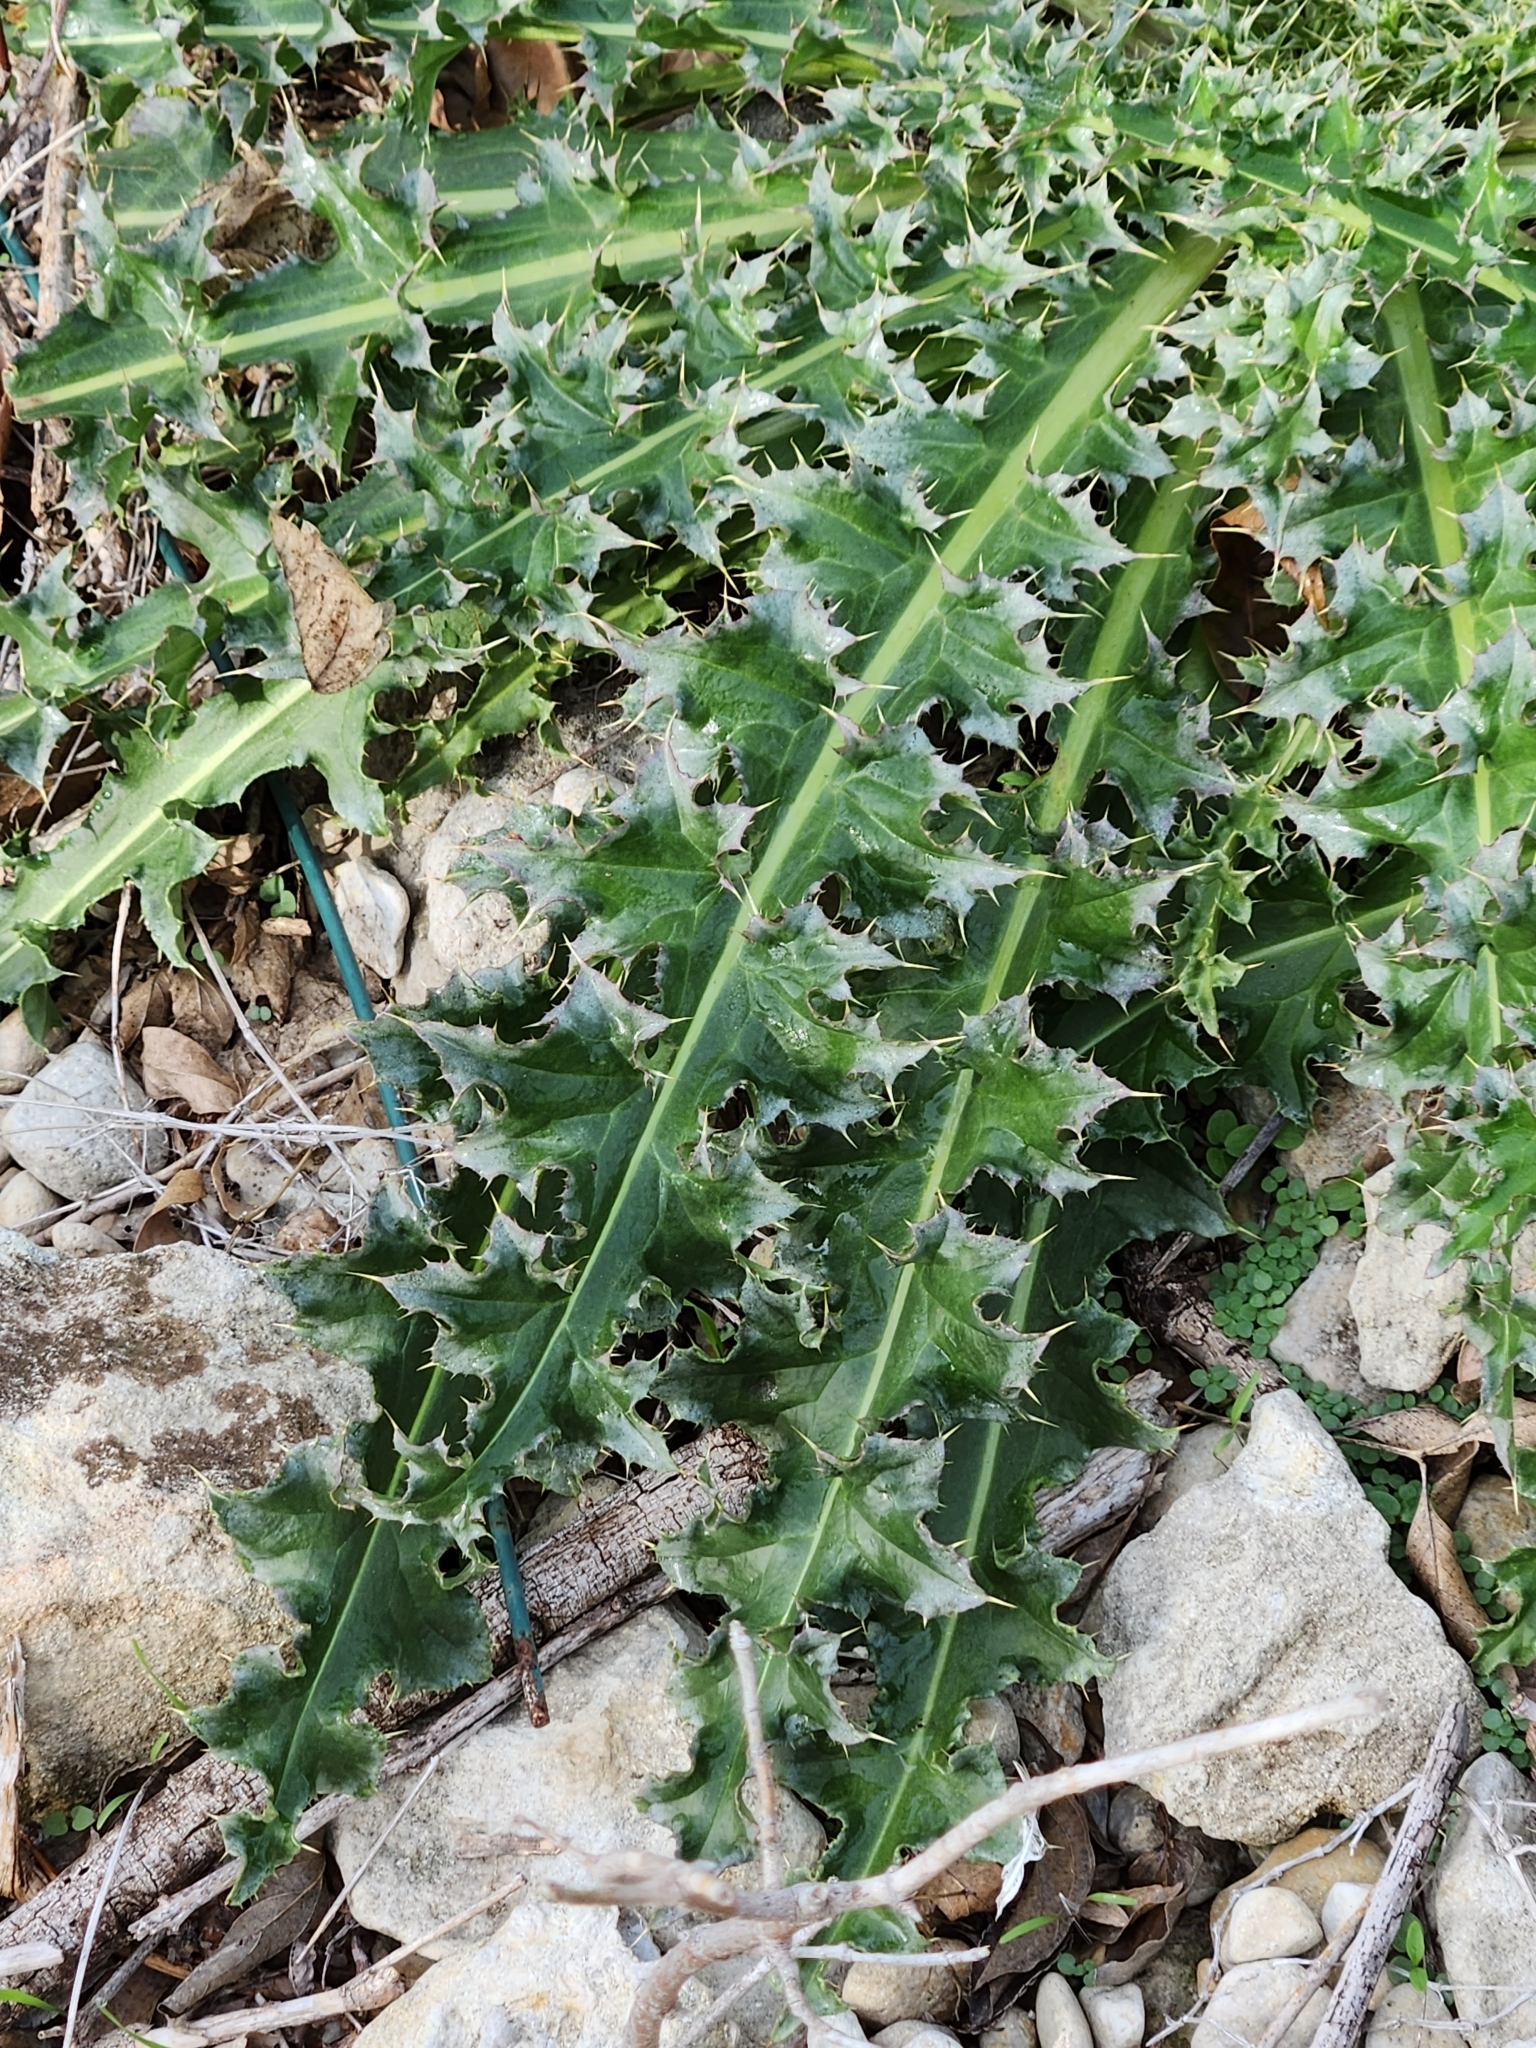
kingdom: Plantae
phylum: Tracheophyta
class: Magnoliopsida
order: Asterales
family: Asteraceae
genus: Carduus
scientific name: Carduus nutans
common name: Musk thistle
